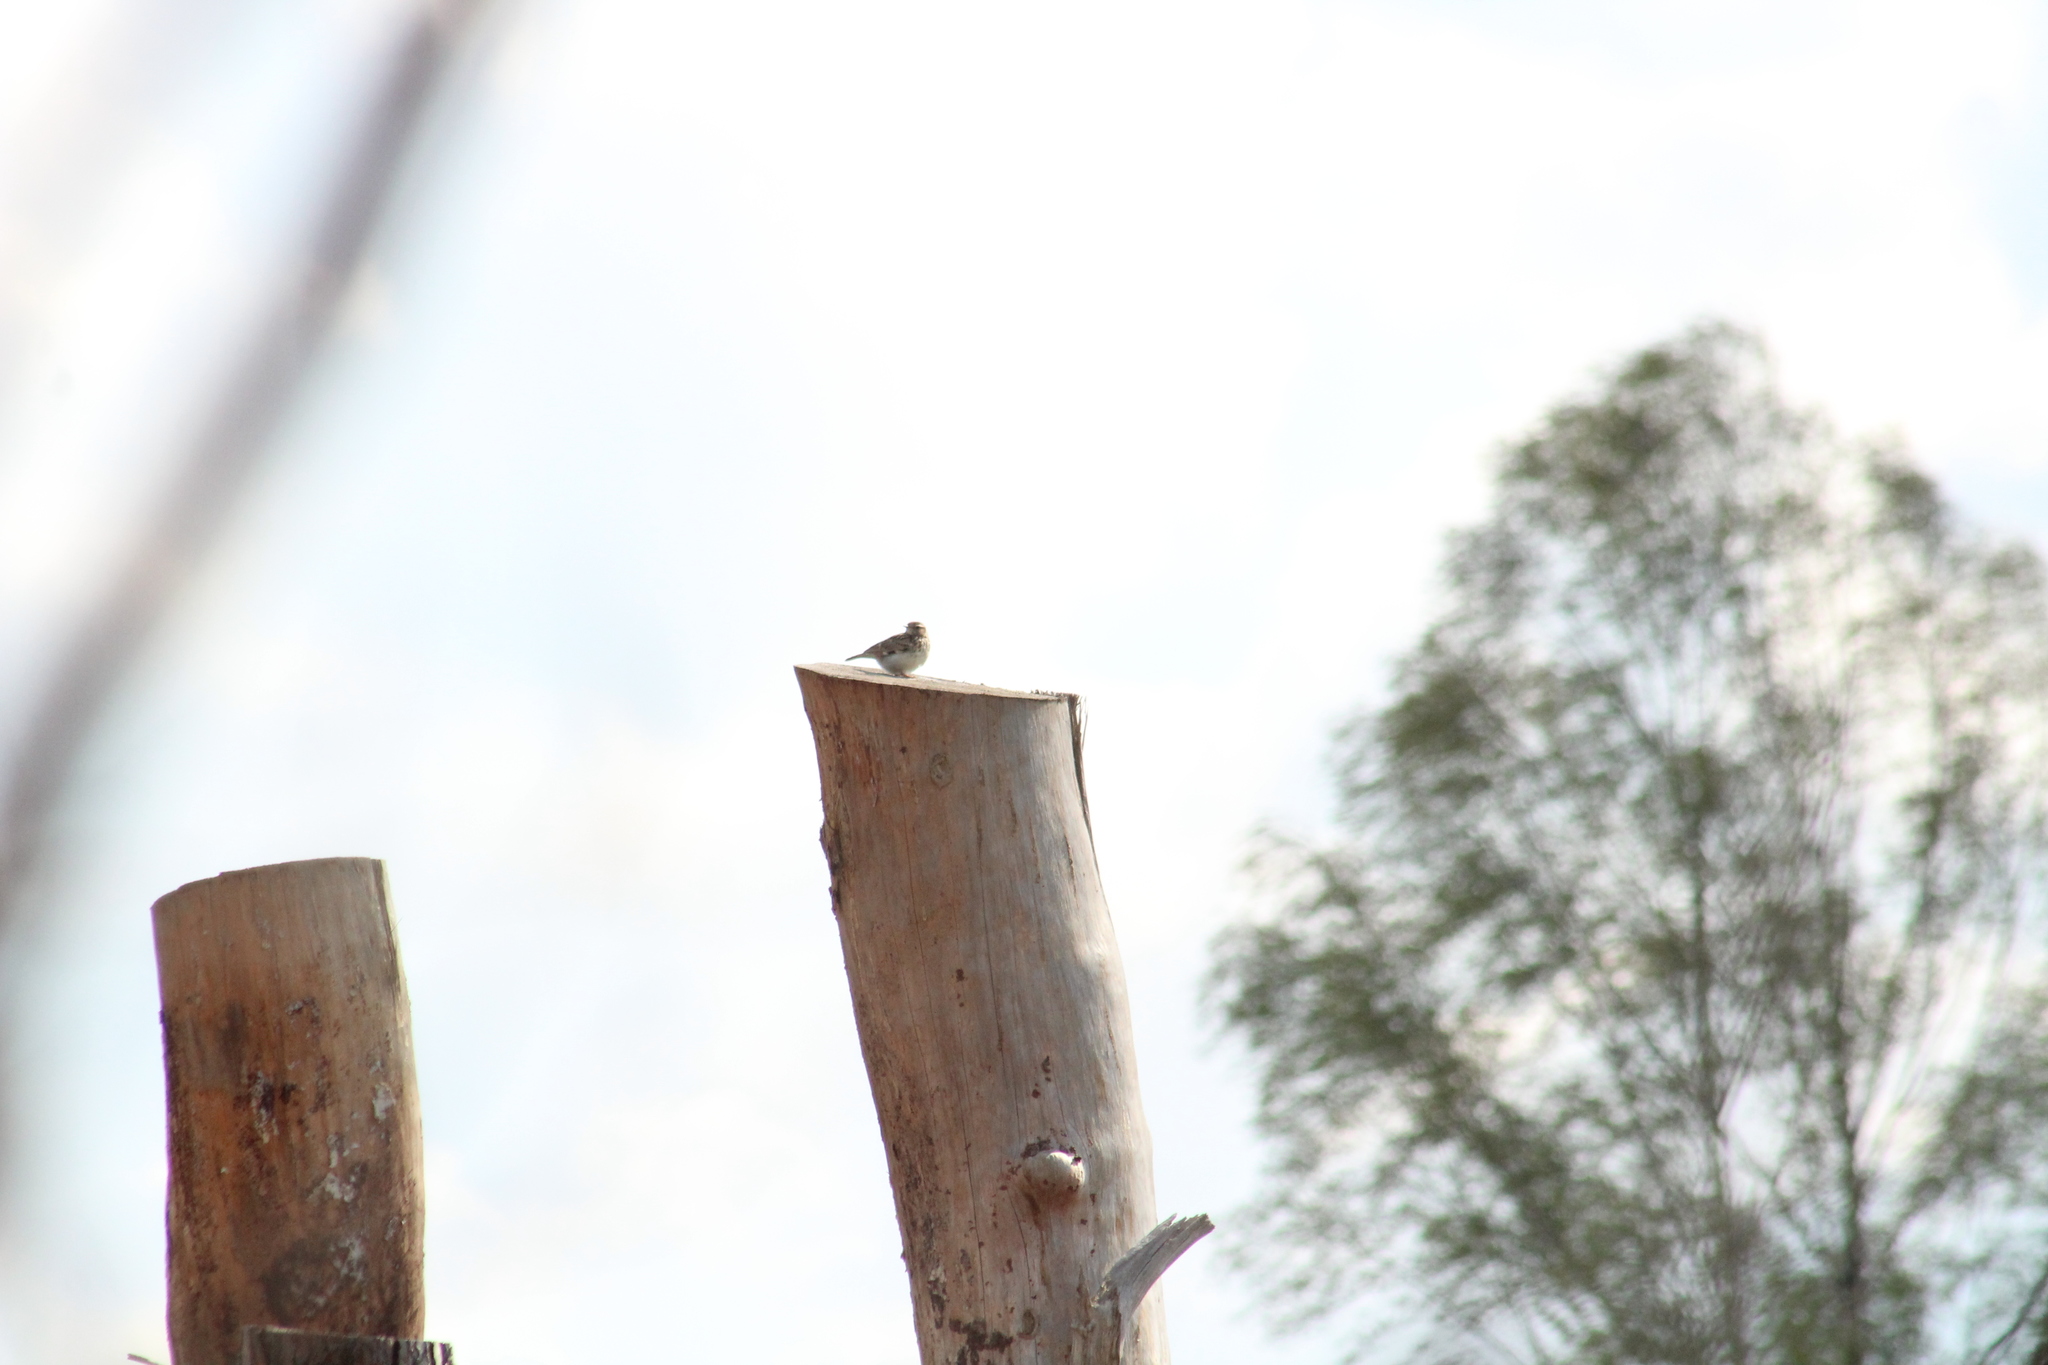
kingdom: Animalia
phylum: Chordata
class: Aves
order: Passeriformes
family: Alaudidae
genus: Lullula
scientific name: Lullula arborea
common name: Woodlark
